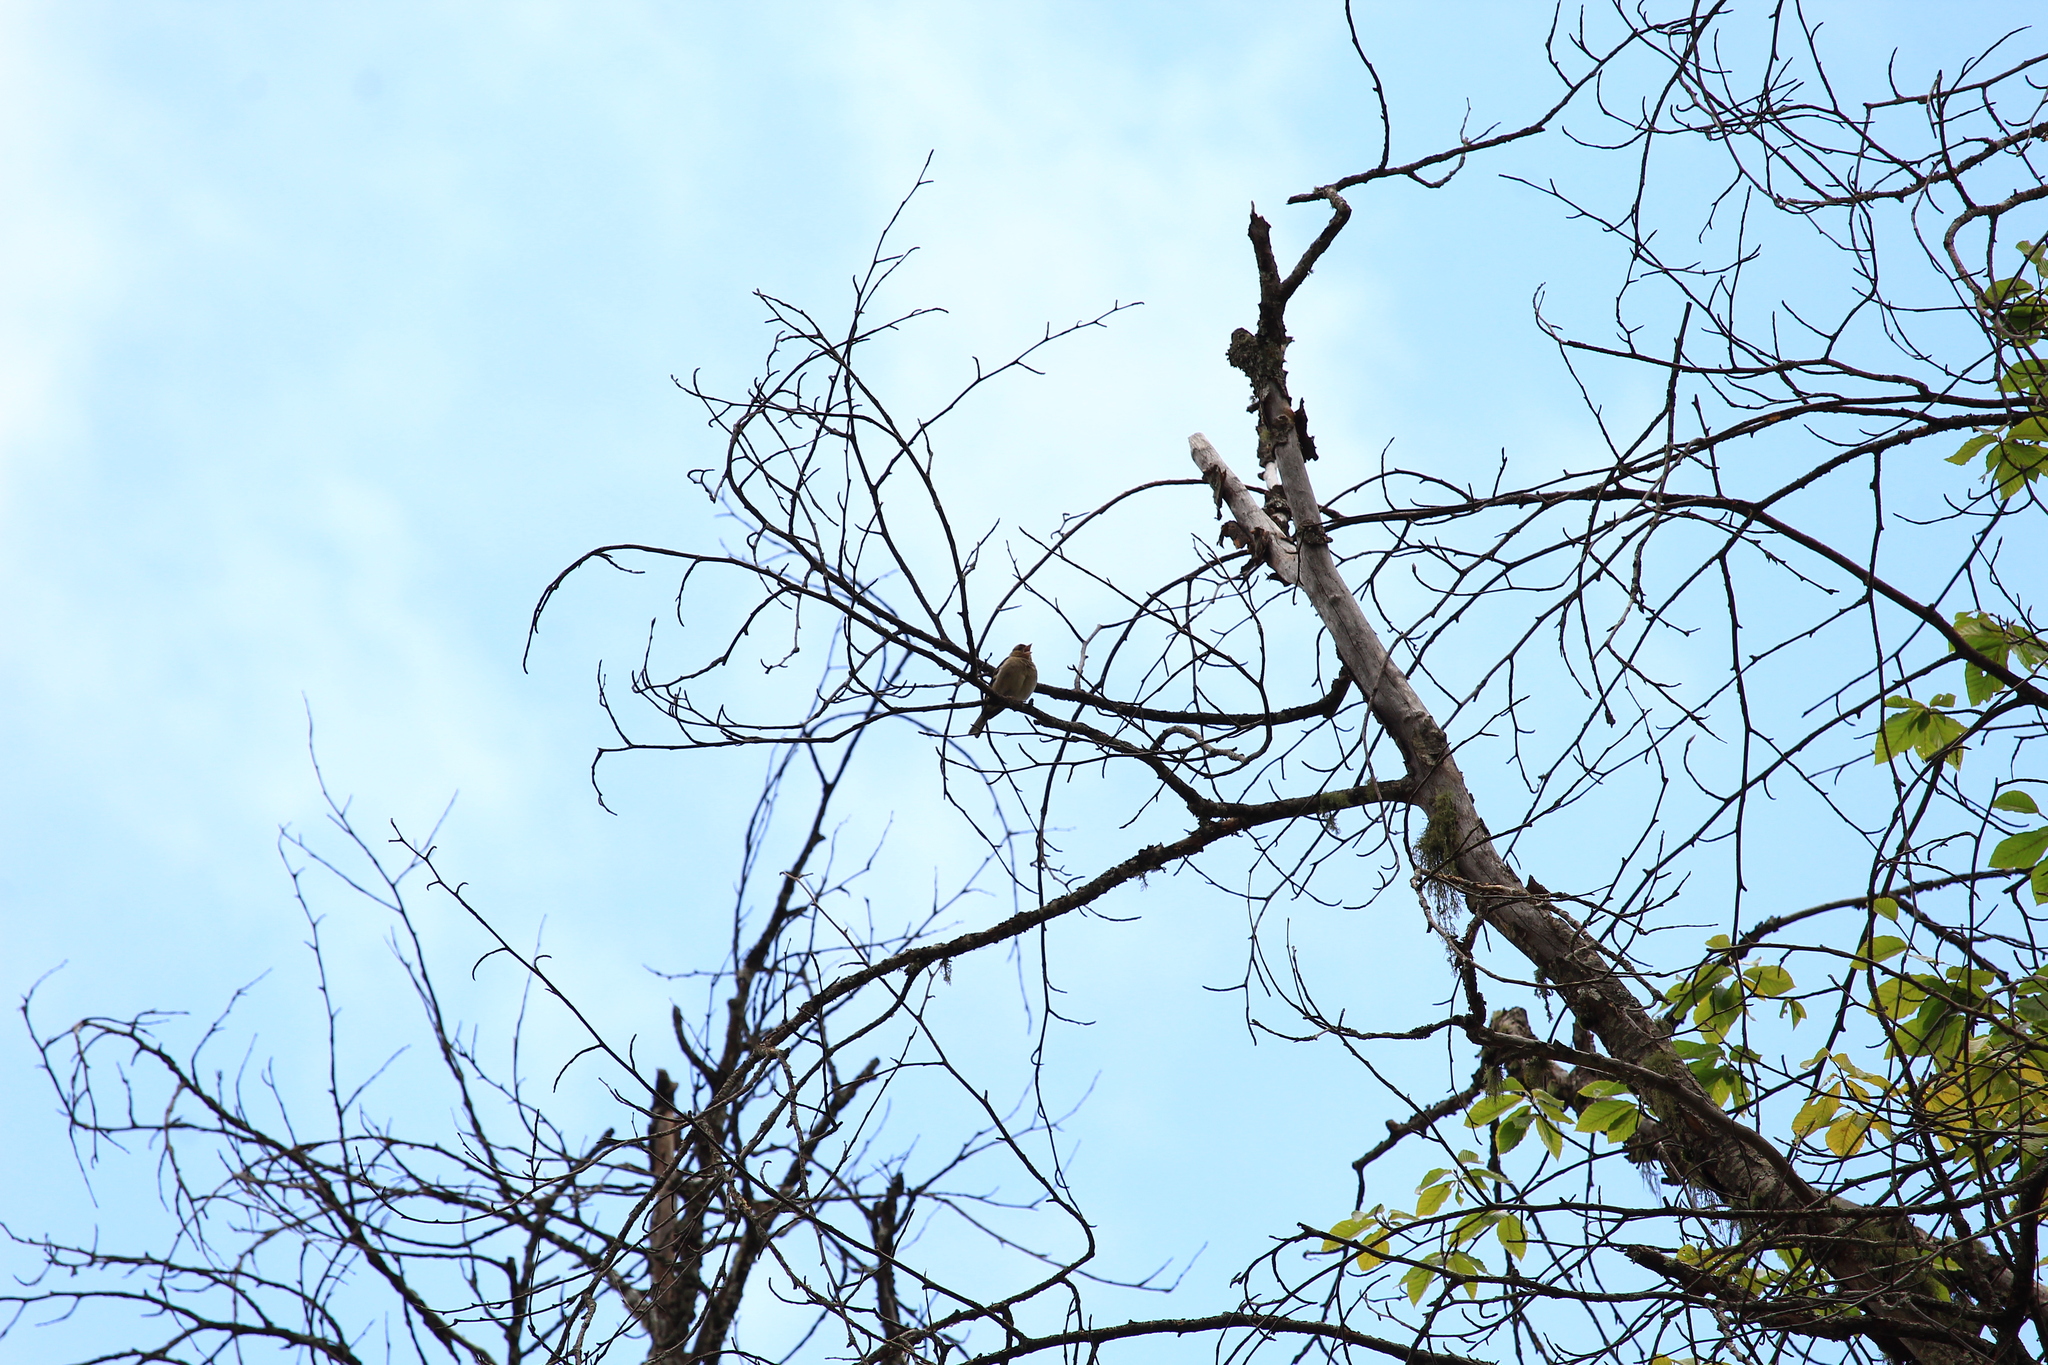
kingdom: Animalia
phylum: Chordata
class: Aves
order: Passeriformes
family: Fringillidae
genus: Fringilla
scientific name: Fringilla coelebs
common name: Common chaffinch
